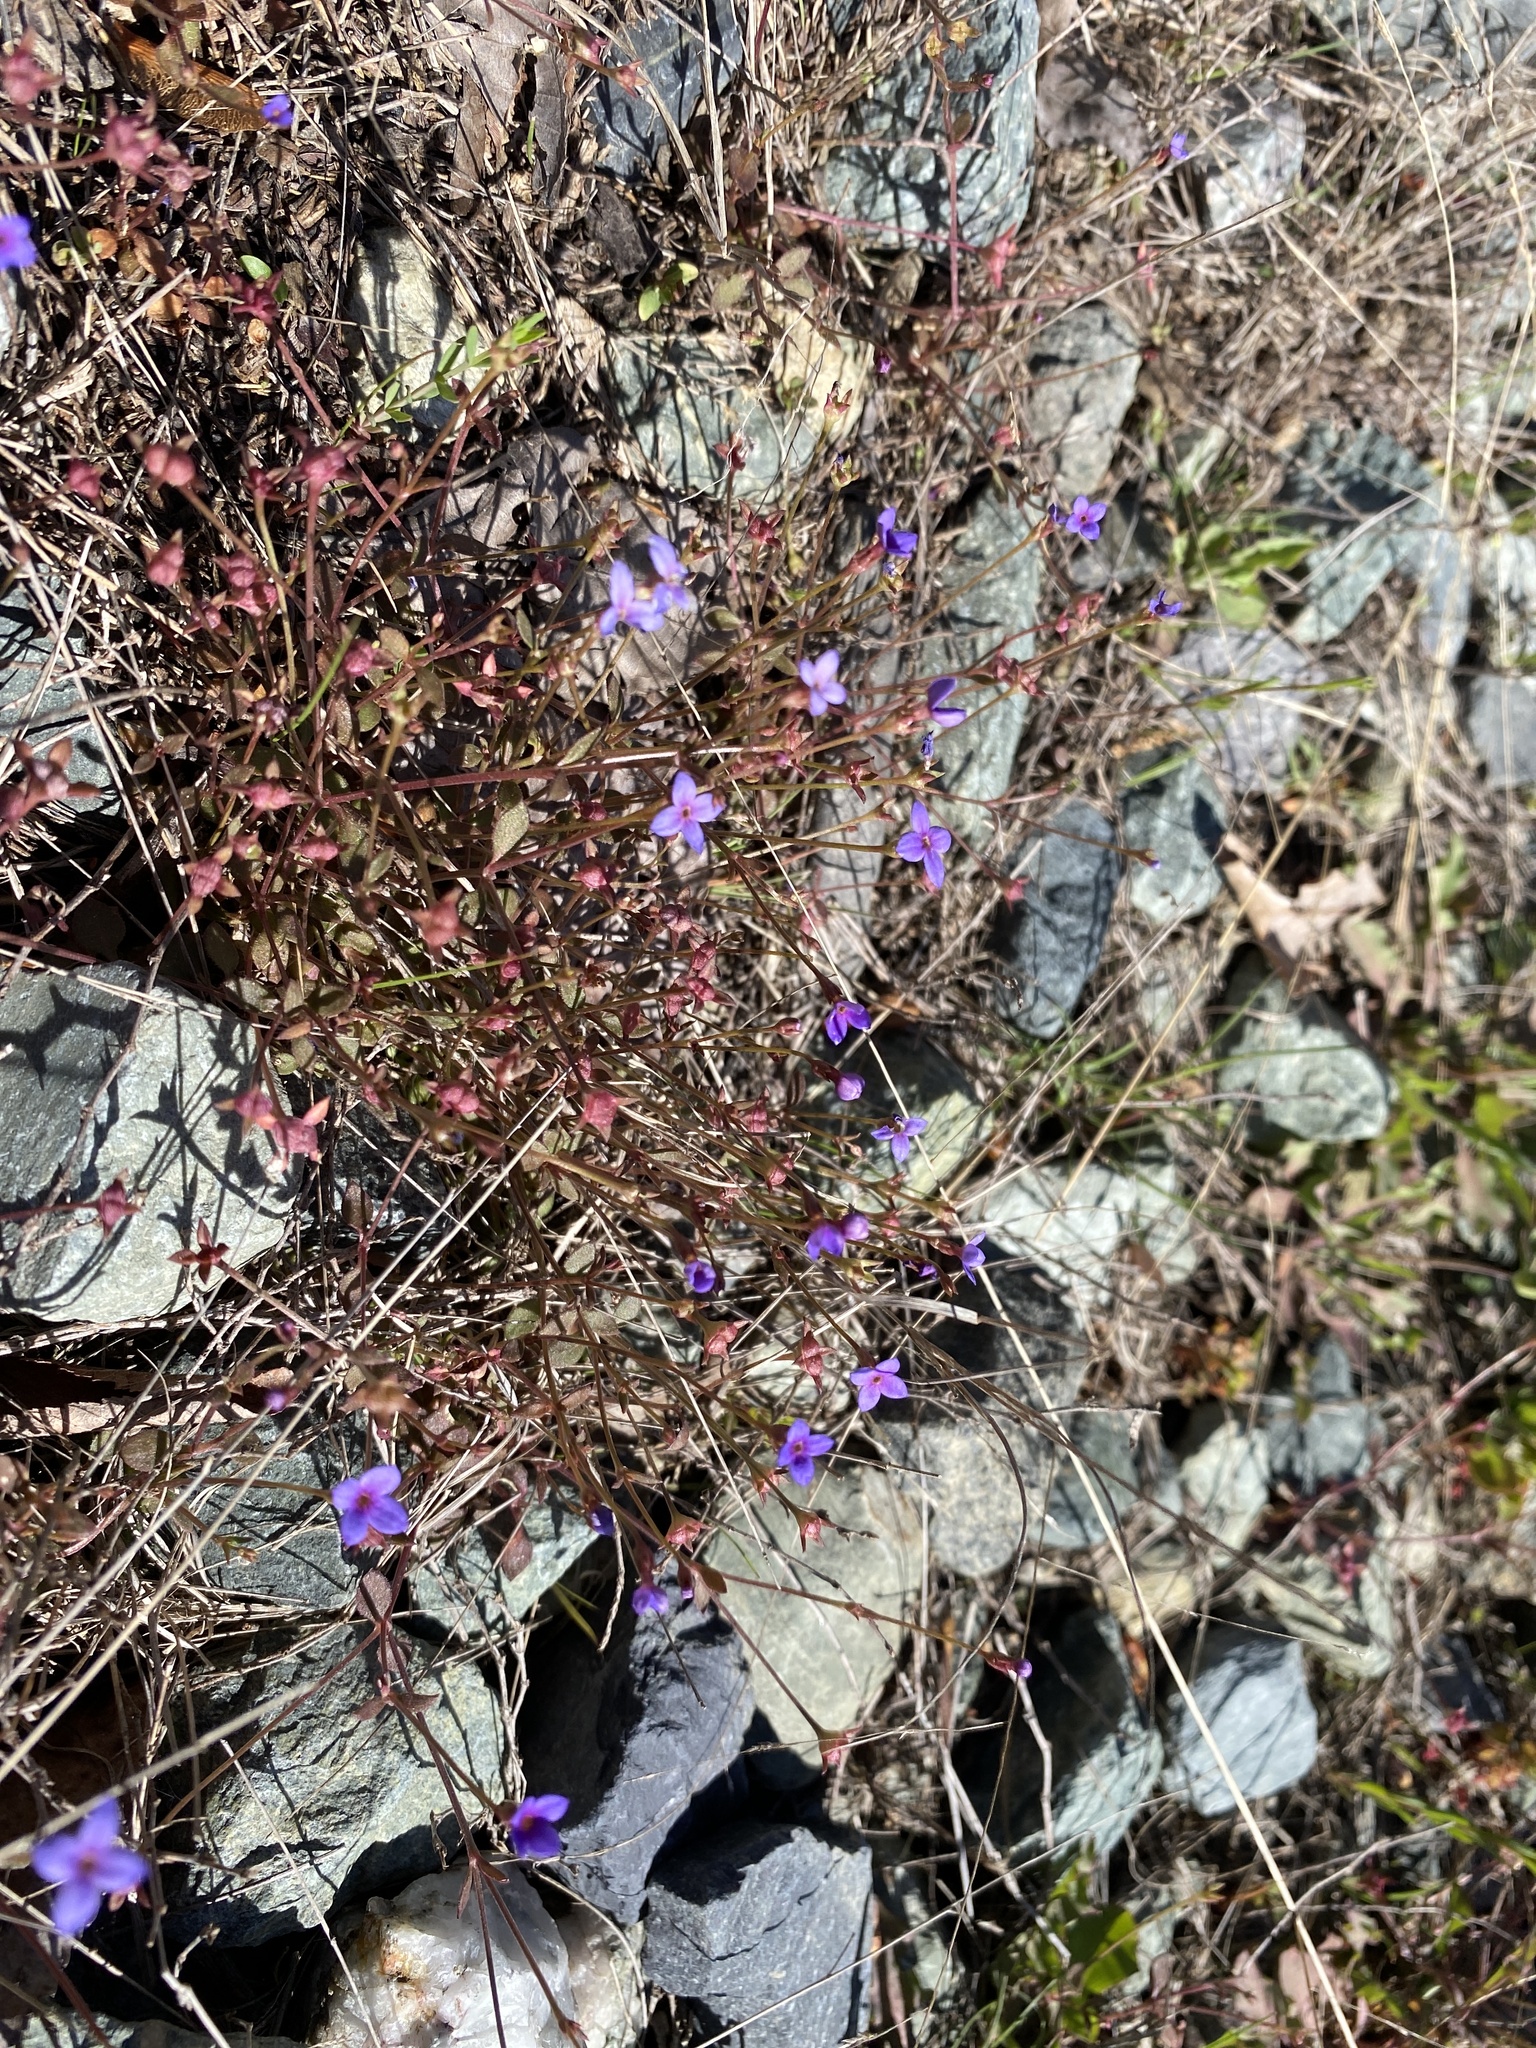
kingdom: Plantae
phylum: Tracheophyta
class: Magnoliopsida
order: Gentianales
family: Rubiaceae
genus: Houstonia
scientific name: Houstonia pusilla
